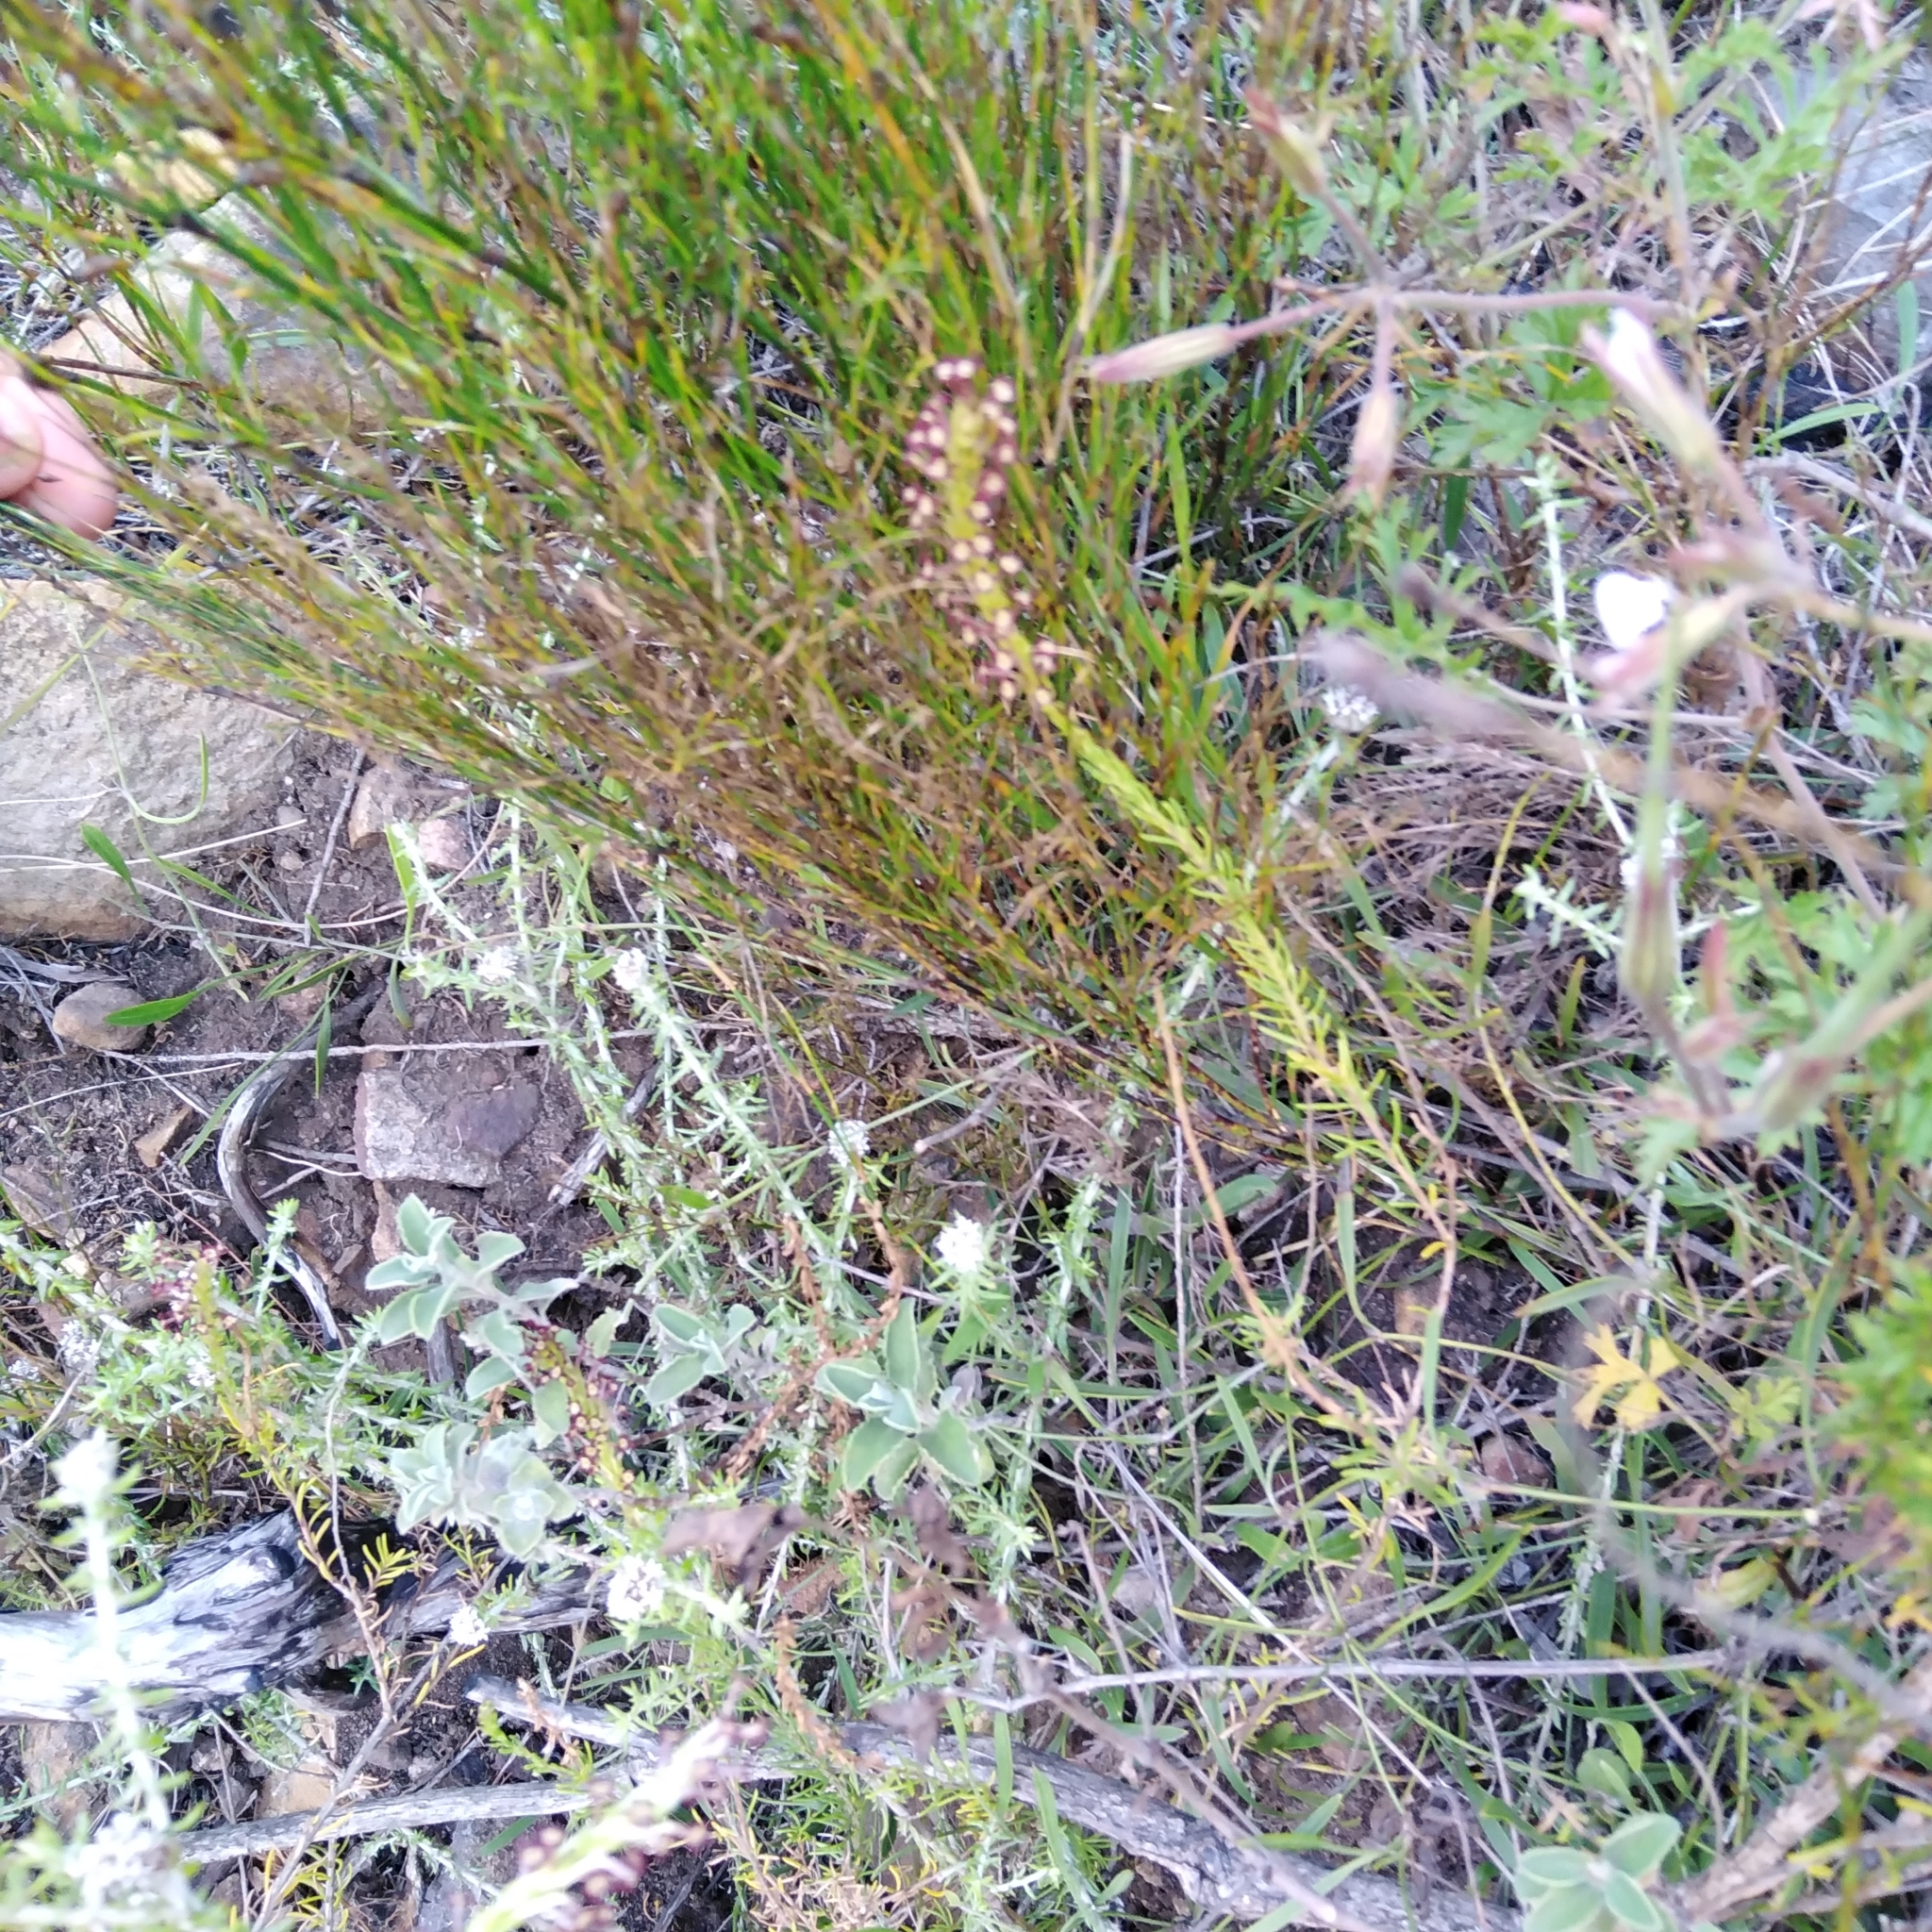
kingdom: Plantae
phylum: Tracheophyta
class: Magnoliopsida
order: Lamiales
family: Scrophulariaceae
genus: Microdon
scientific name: Microdon dubius
